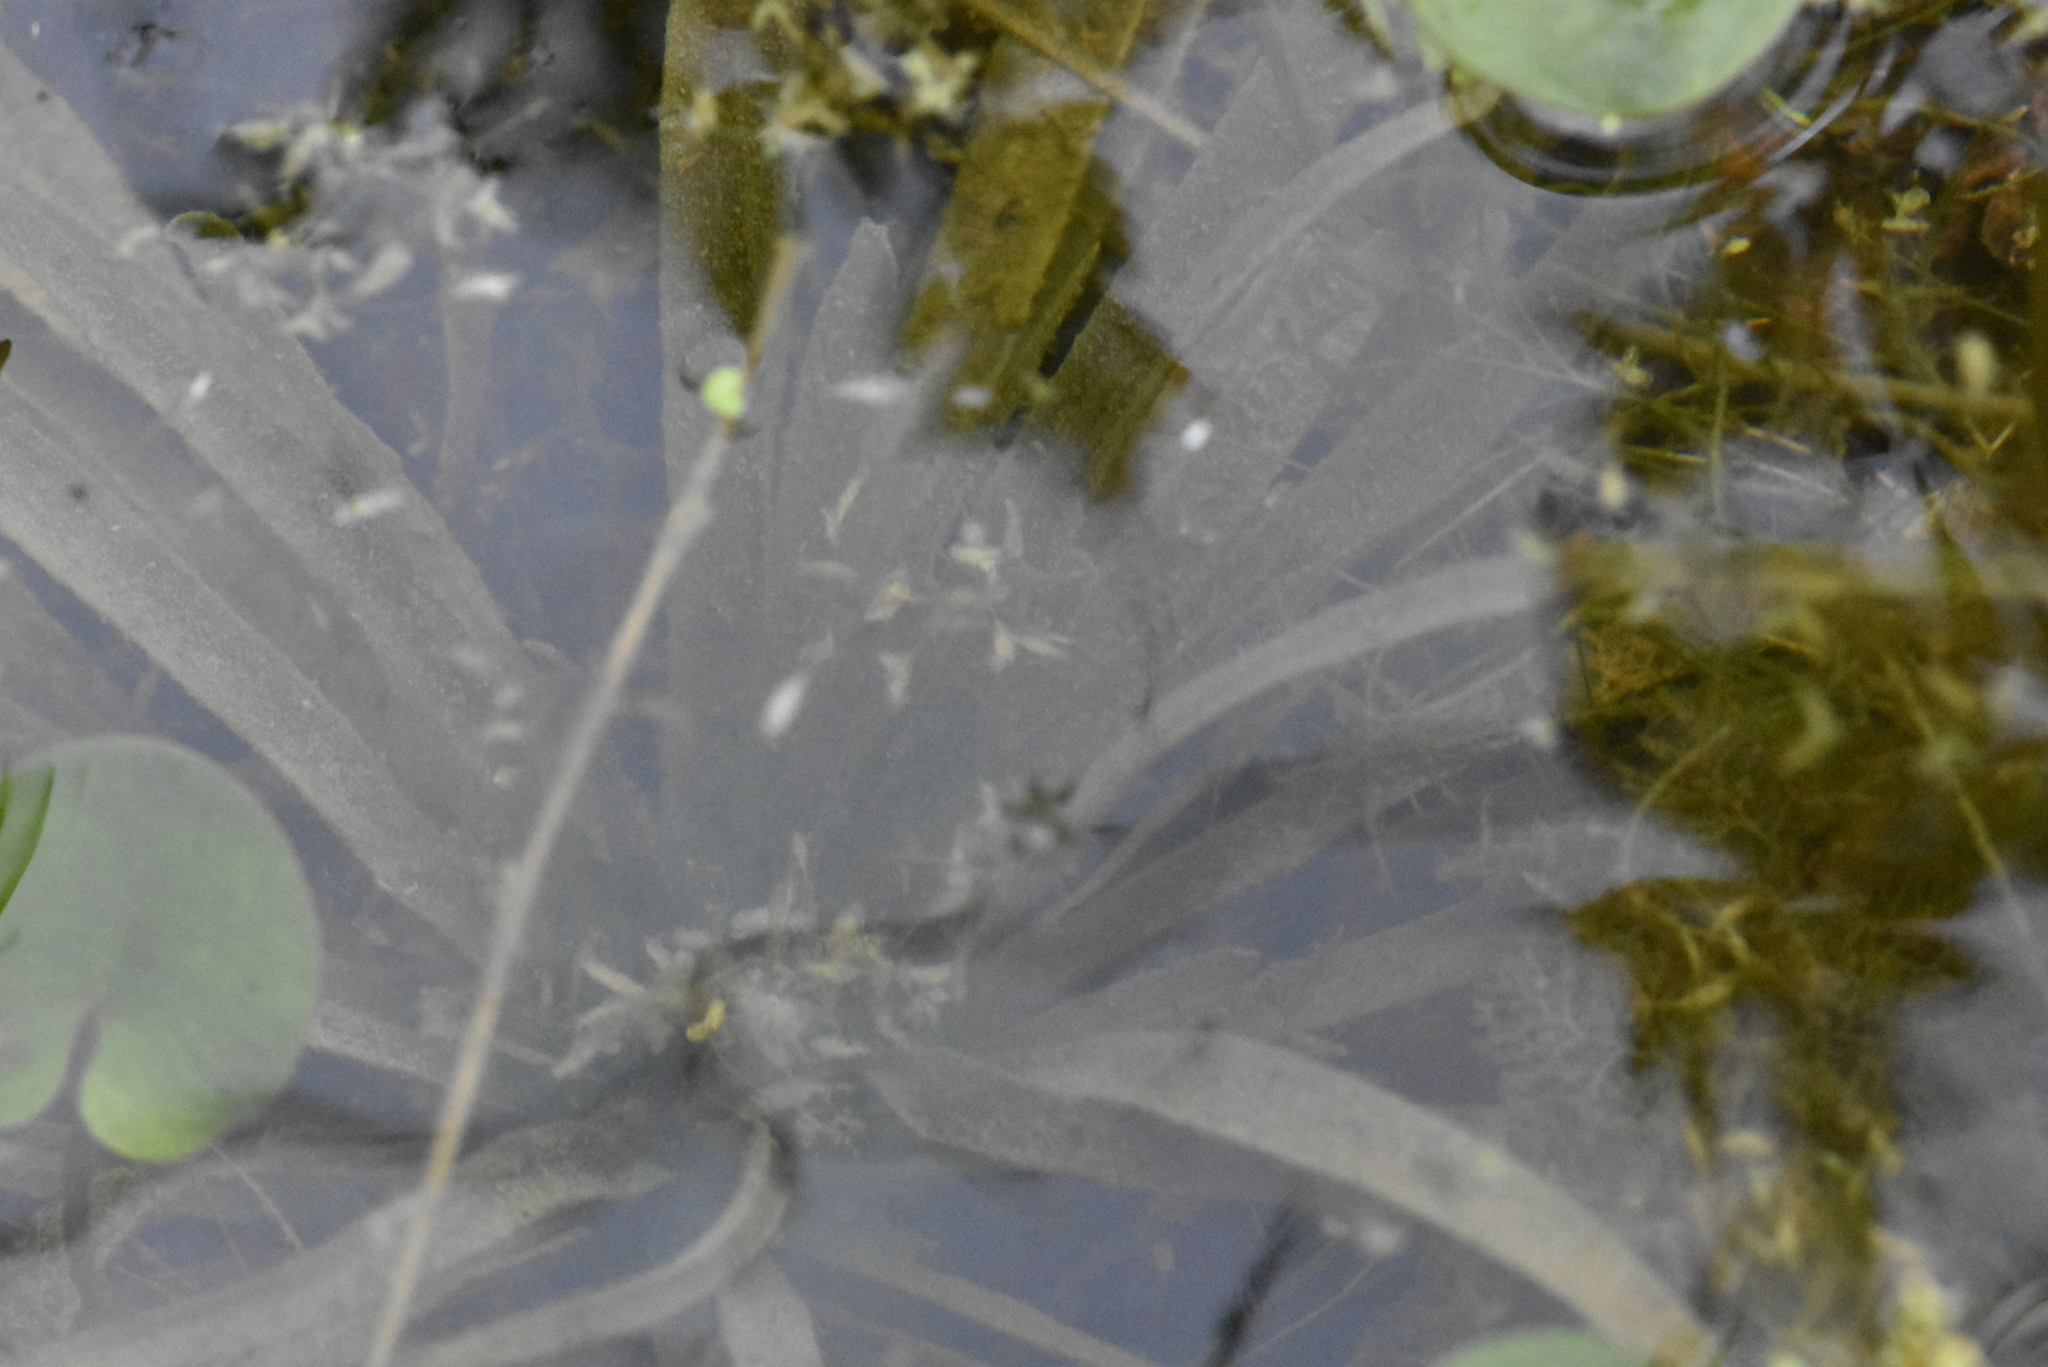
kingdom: Plantae
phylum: Tracheophyta
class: Liliopsida
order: Alismatales
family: Hydrocharitaceae
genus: Stratiotes
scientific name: Stratiotes aloides
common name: Water-soldier
